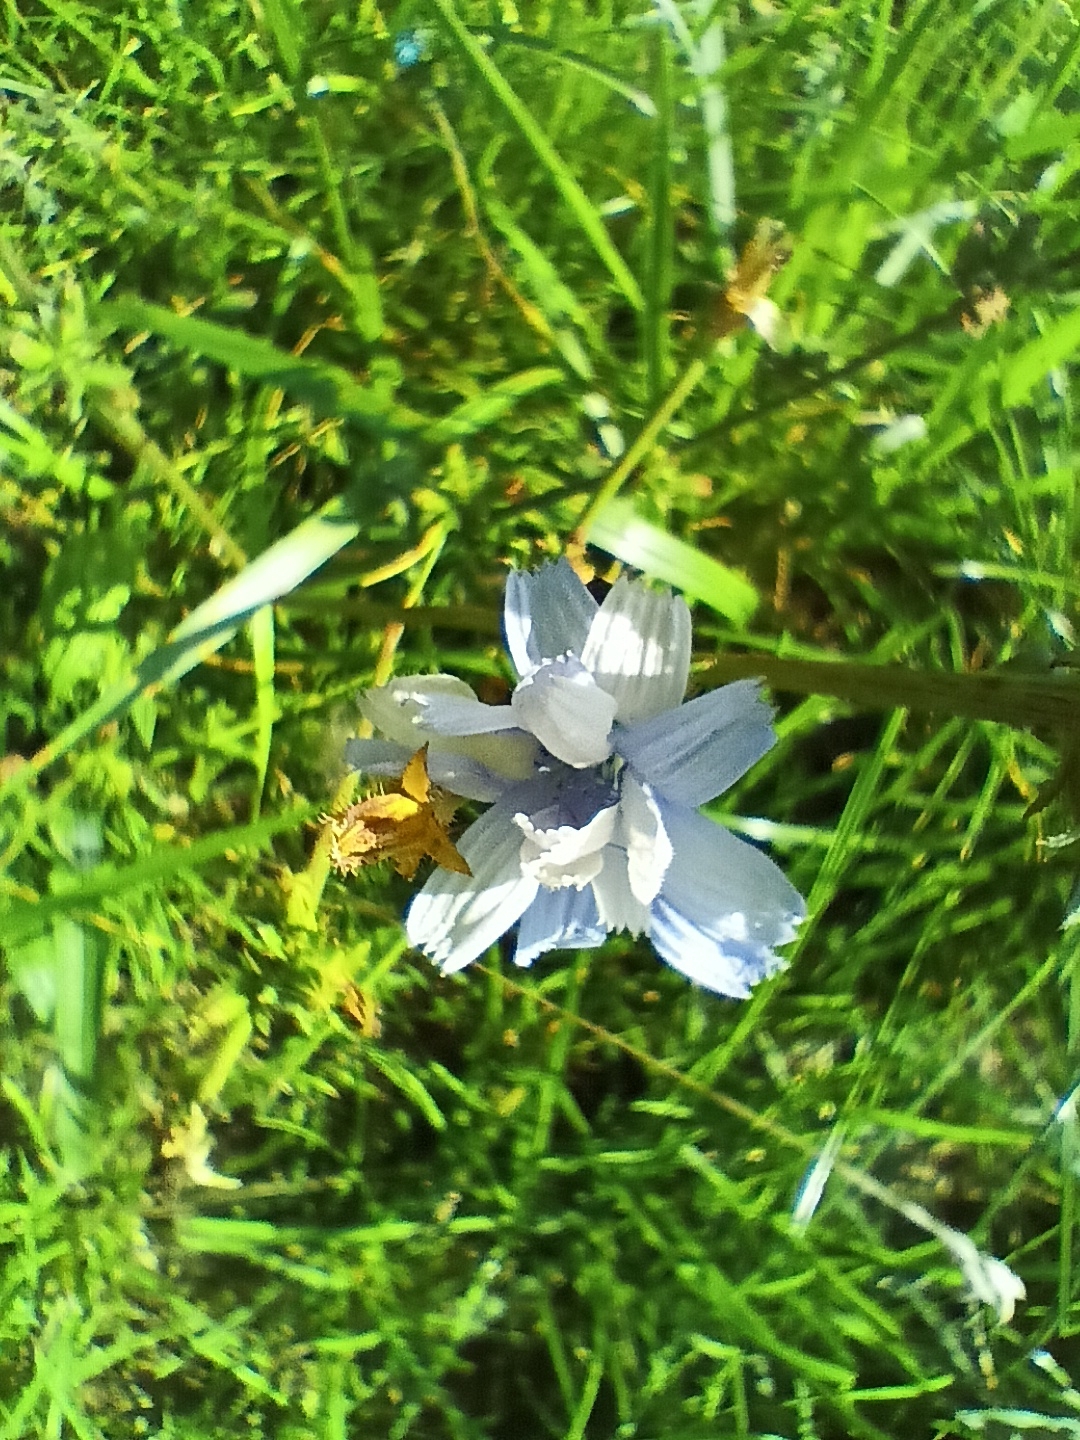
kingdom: Plantae
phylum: Tracheophyta
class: Magnoliopsida
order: Asterales
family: Asteraceae
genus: Cichorium
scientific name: Cichorium intybus
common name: Chicory
